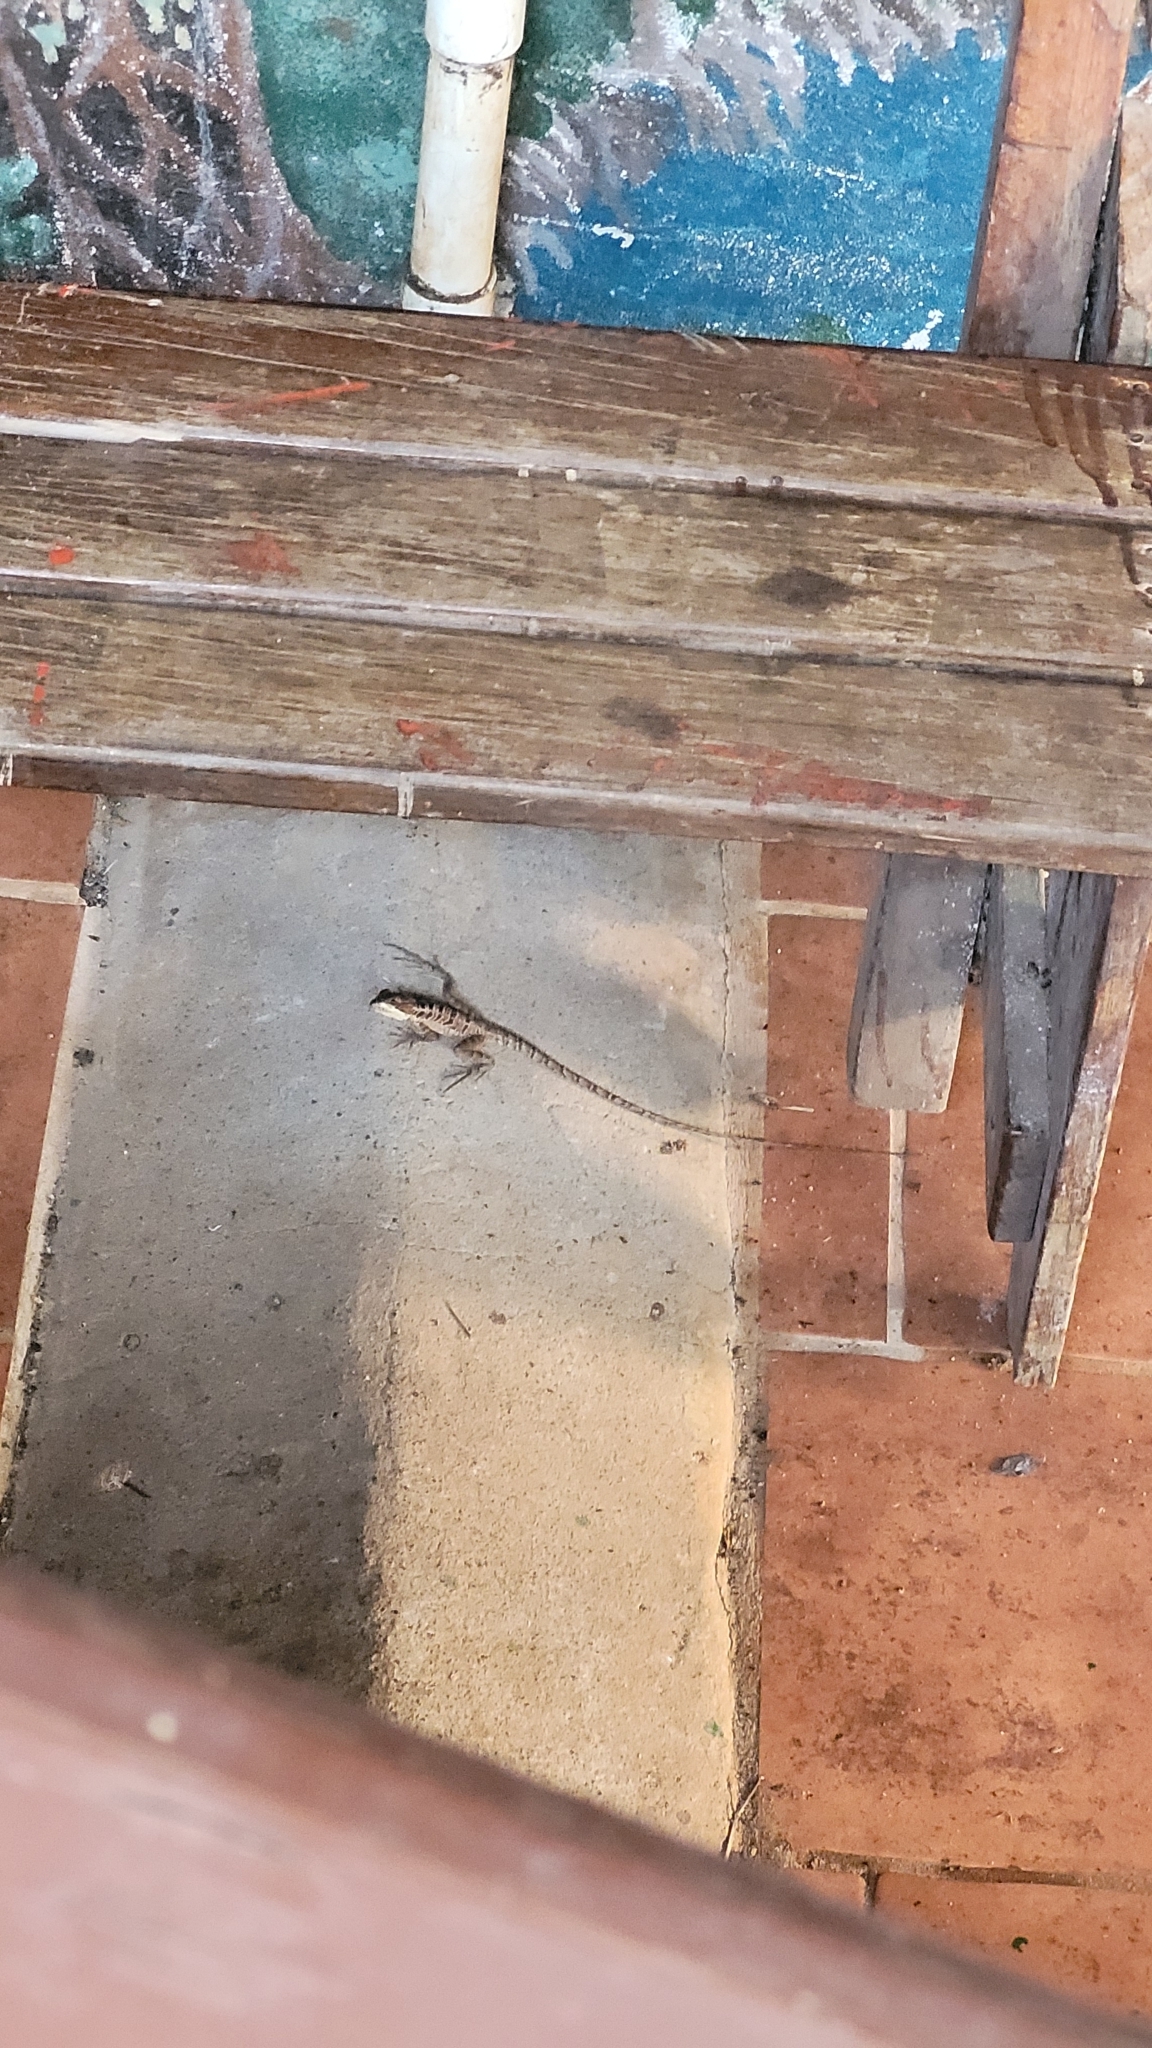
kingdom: Animalia
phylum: Chordata
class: Squamata
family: Corytophanidae
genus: Basiliscus
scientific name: Basiliscus vittatus
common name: Brown basilisk
